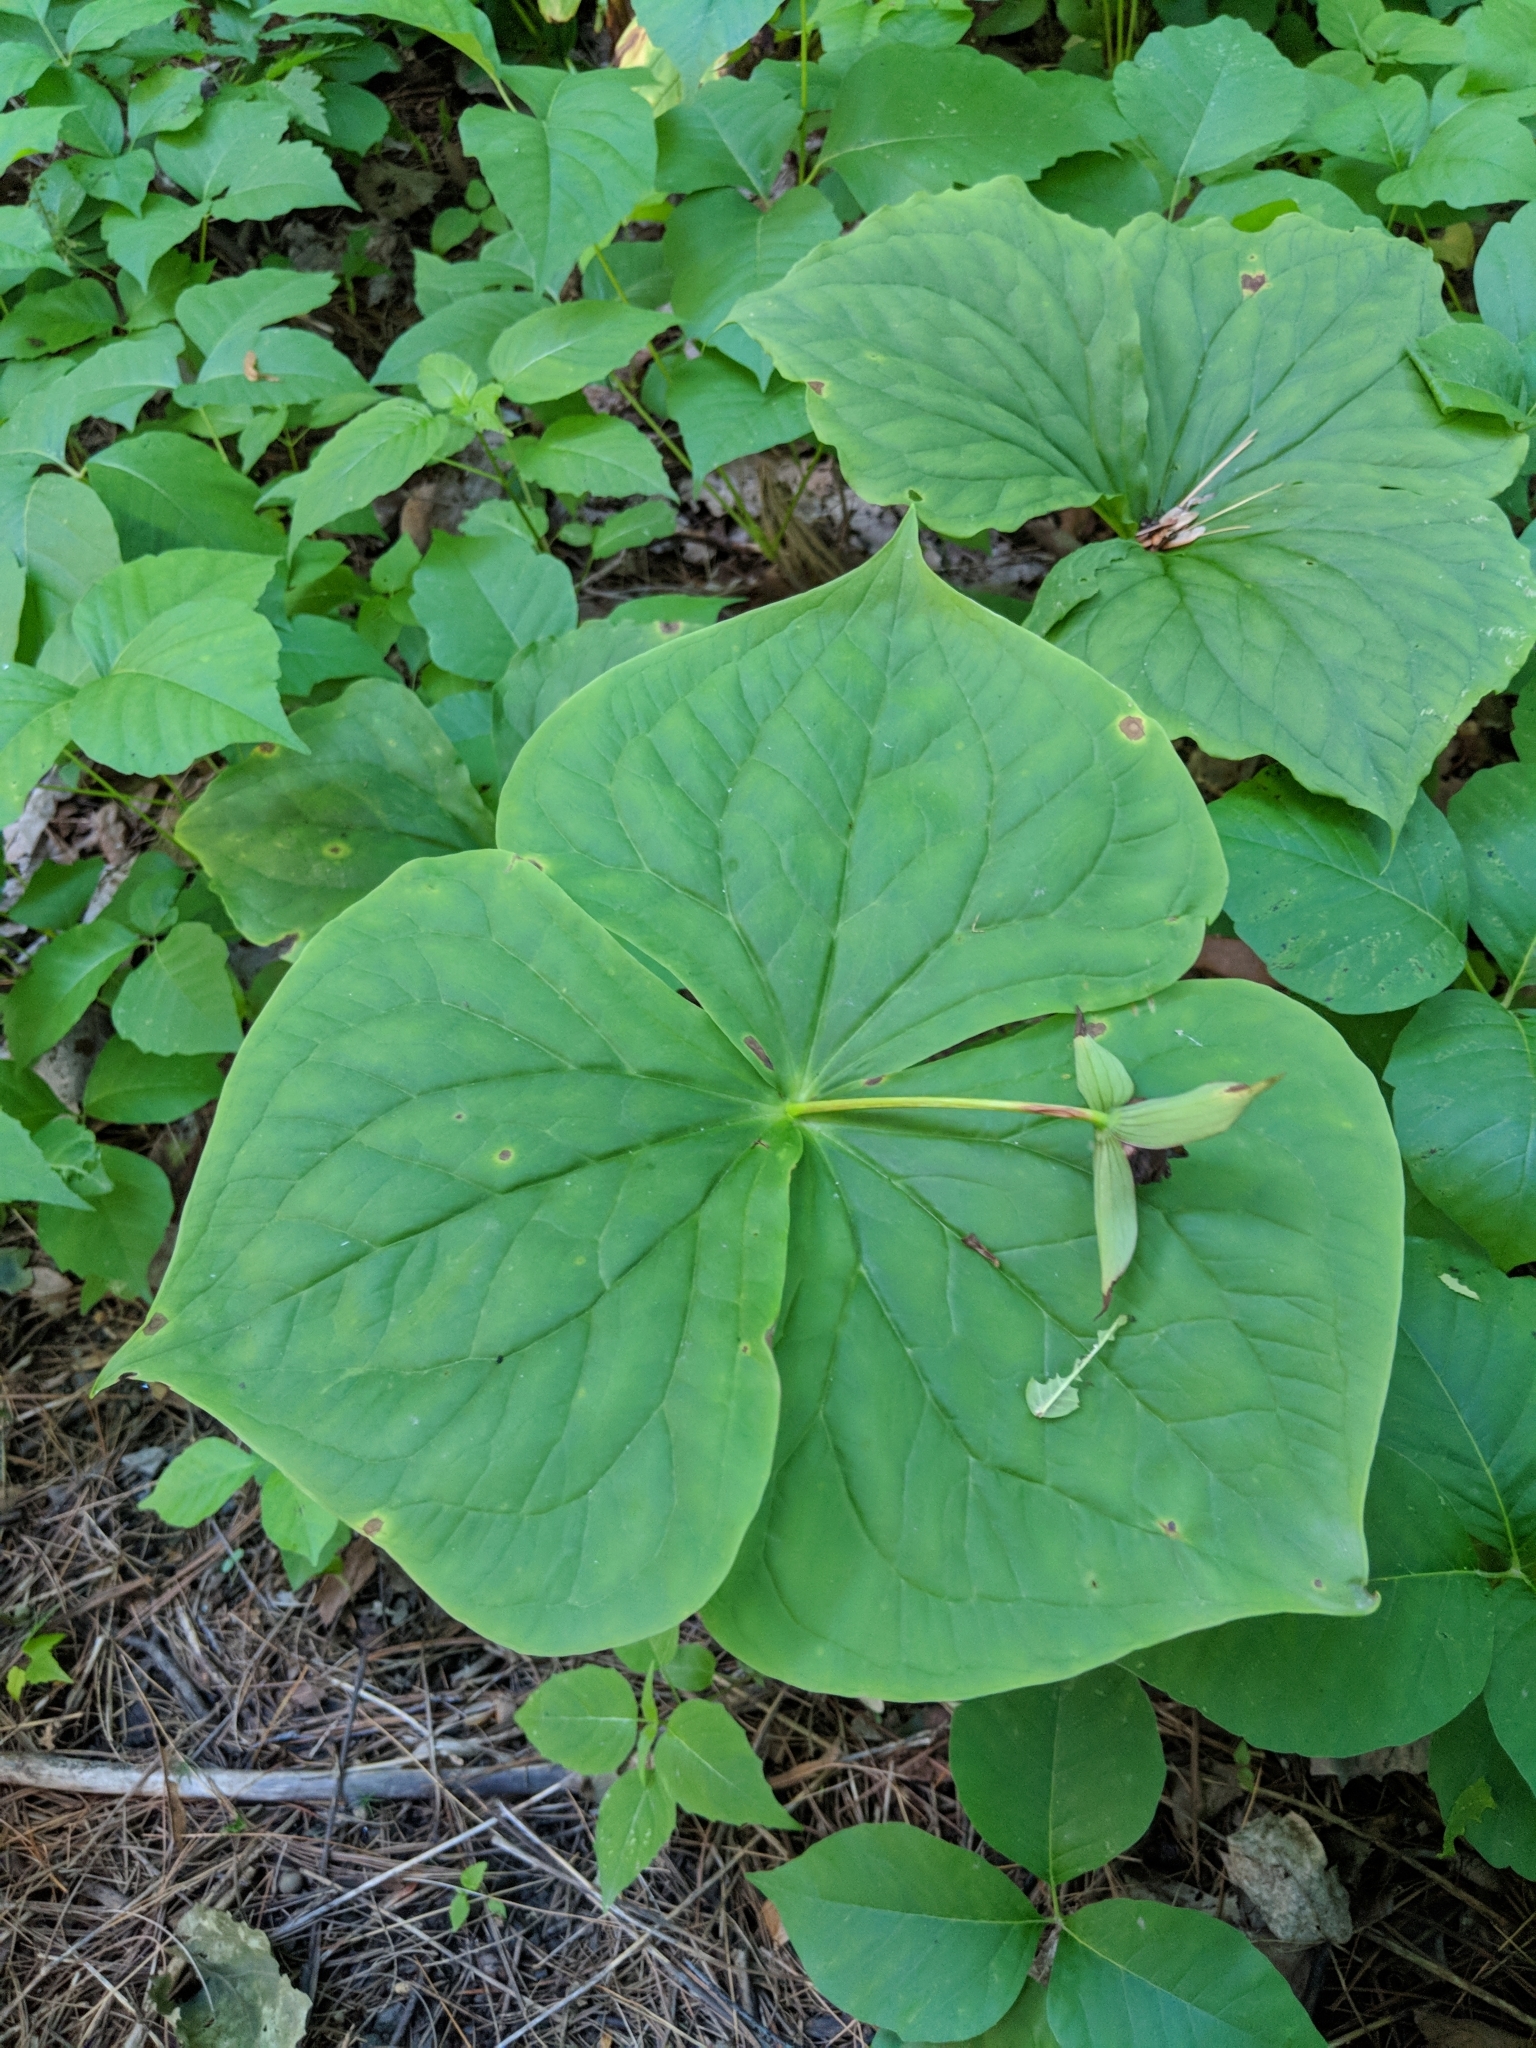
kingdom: Plantae
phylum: Tracheophyta
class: Liliopsida
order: Liliales
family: Melanthiaceae
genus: Trillium
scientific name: Trillium erectum
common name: Purple trillium
